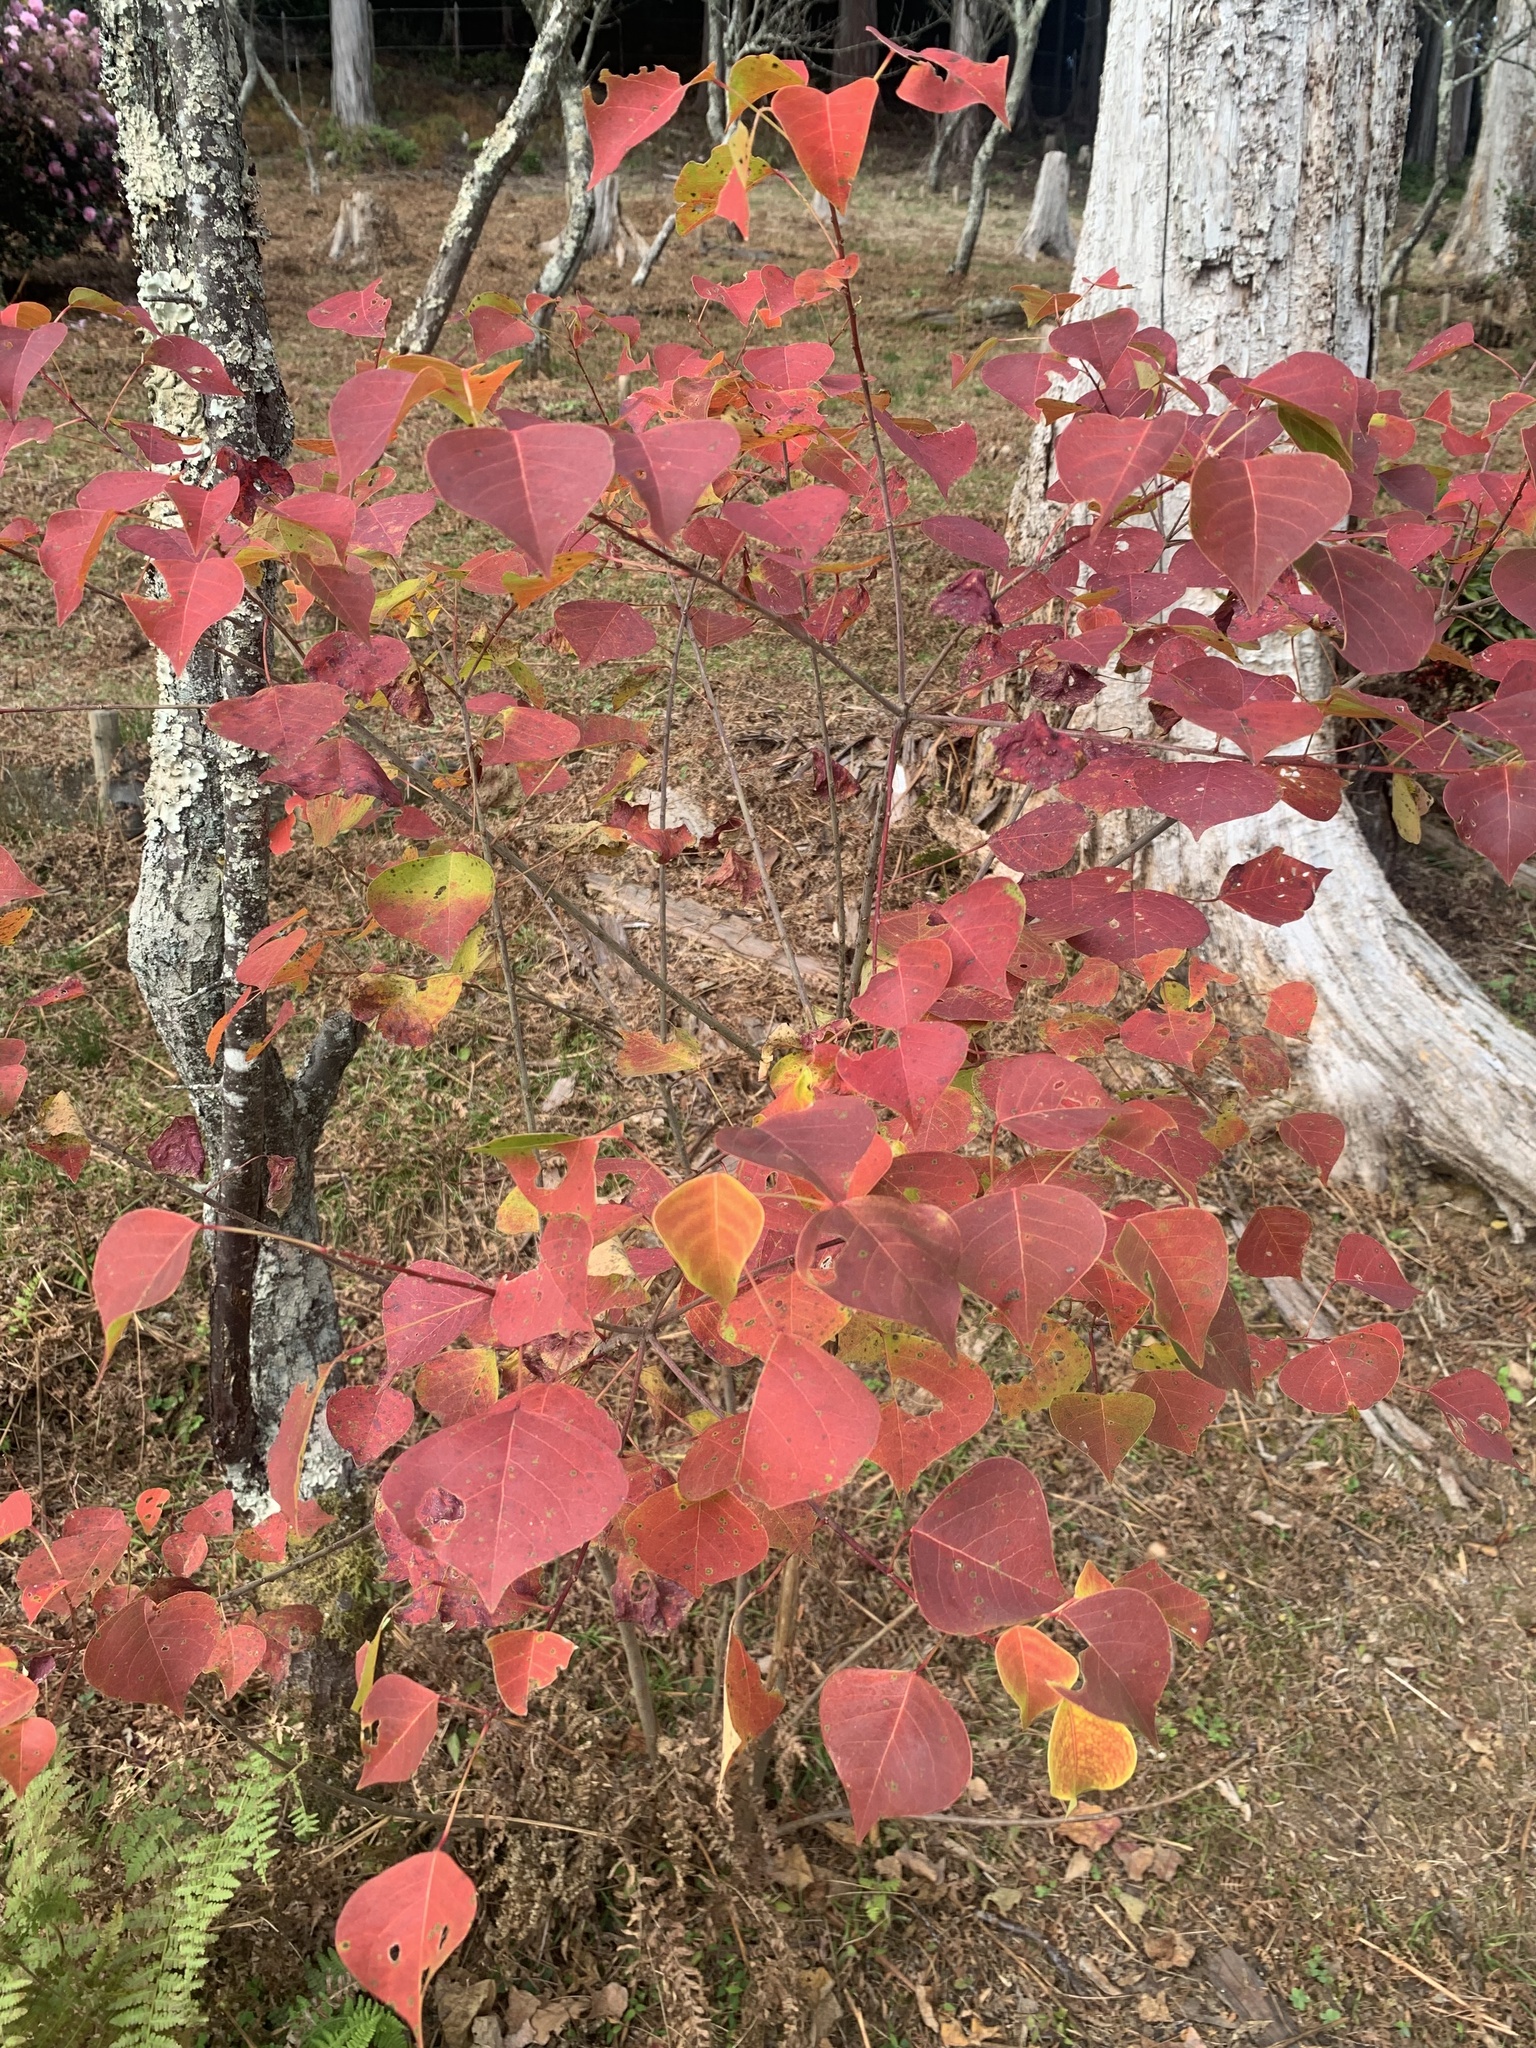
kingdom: Plantae
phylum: Tracheophyta
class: Magnoliopsida
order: Malpighiales
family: Euphorbiaceae
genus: Triadica
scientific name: Triadica sebifera
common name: Chinese tallow
